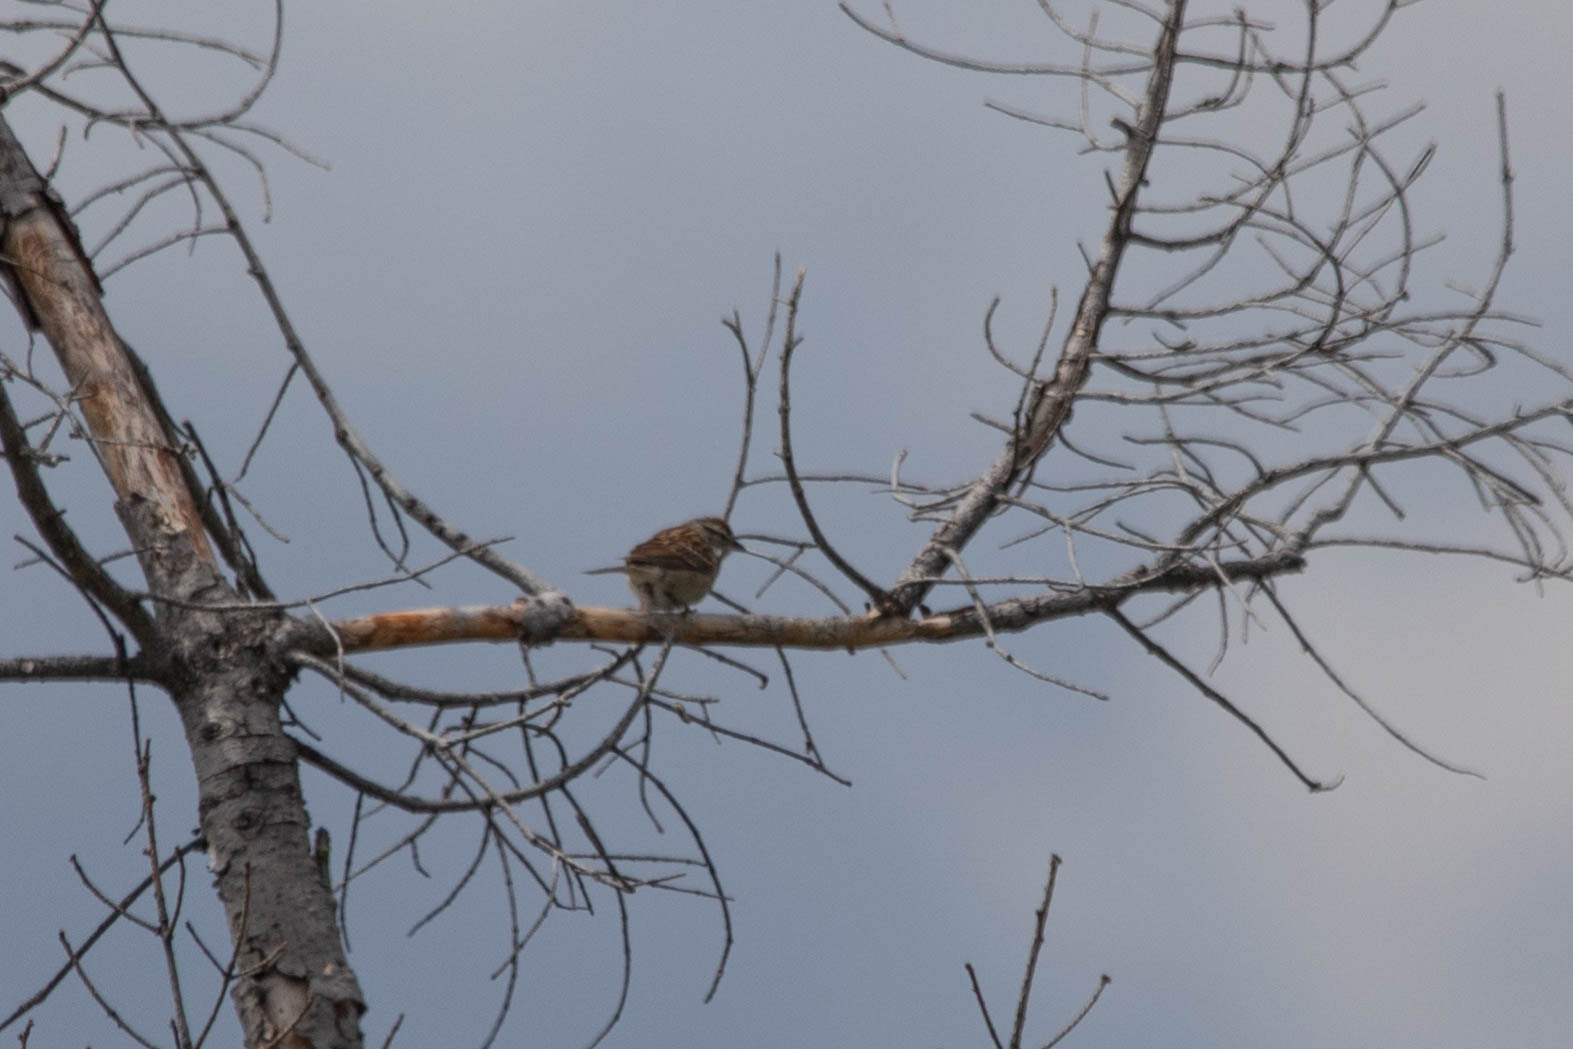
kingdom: Animalia
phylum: Chordata
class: Aves
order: Passeriformes
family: Passerellidae
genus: Spizella
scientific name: Spizella passerina
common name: Chipping sparrow
